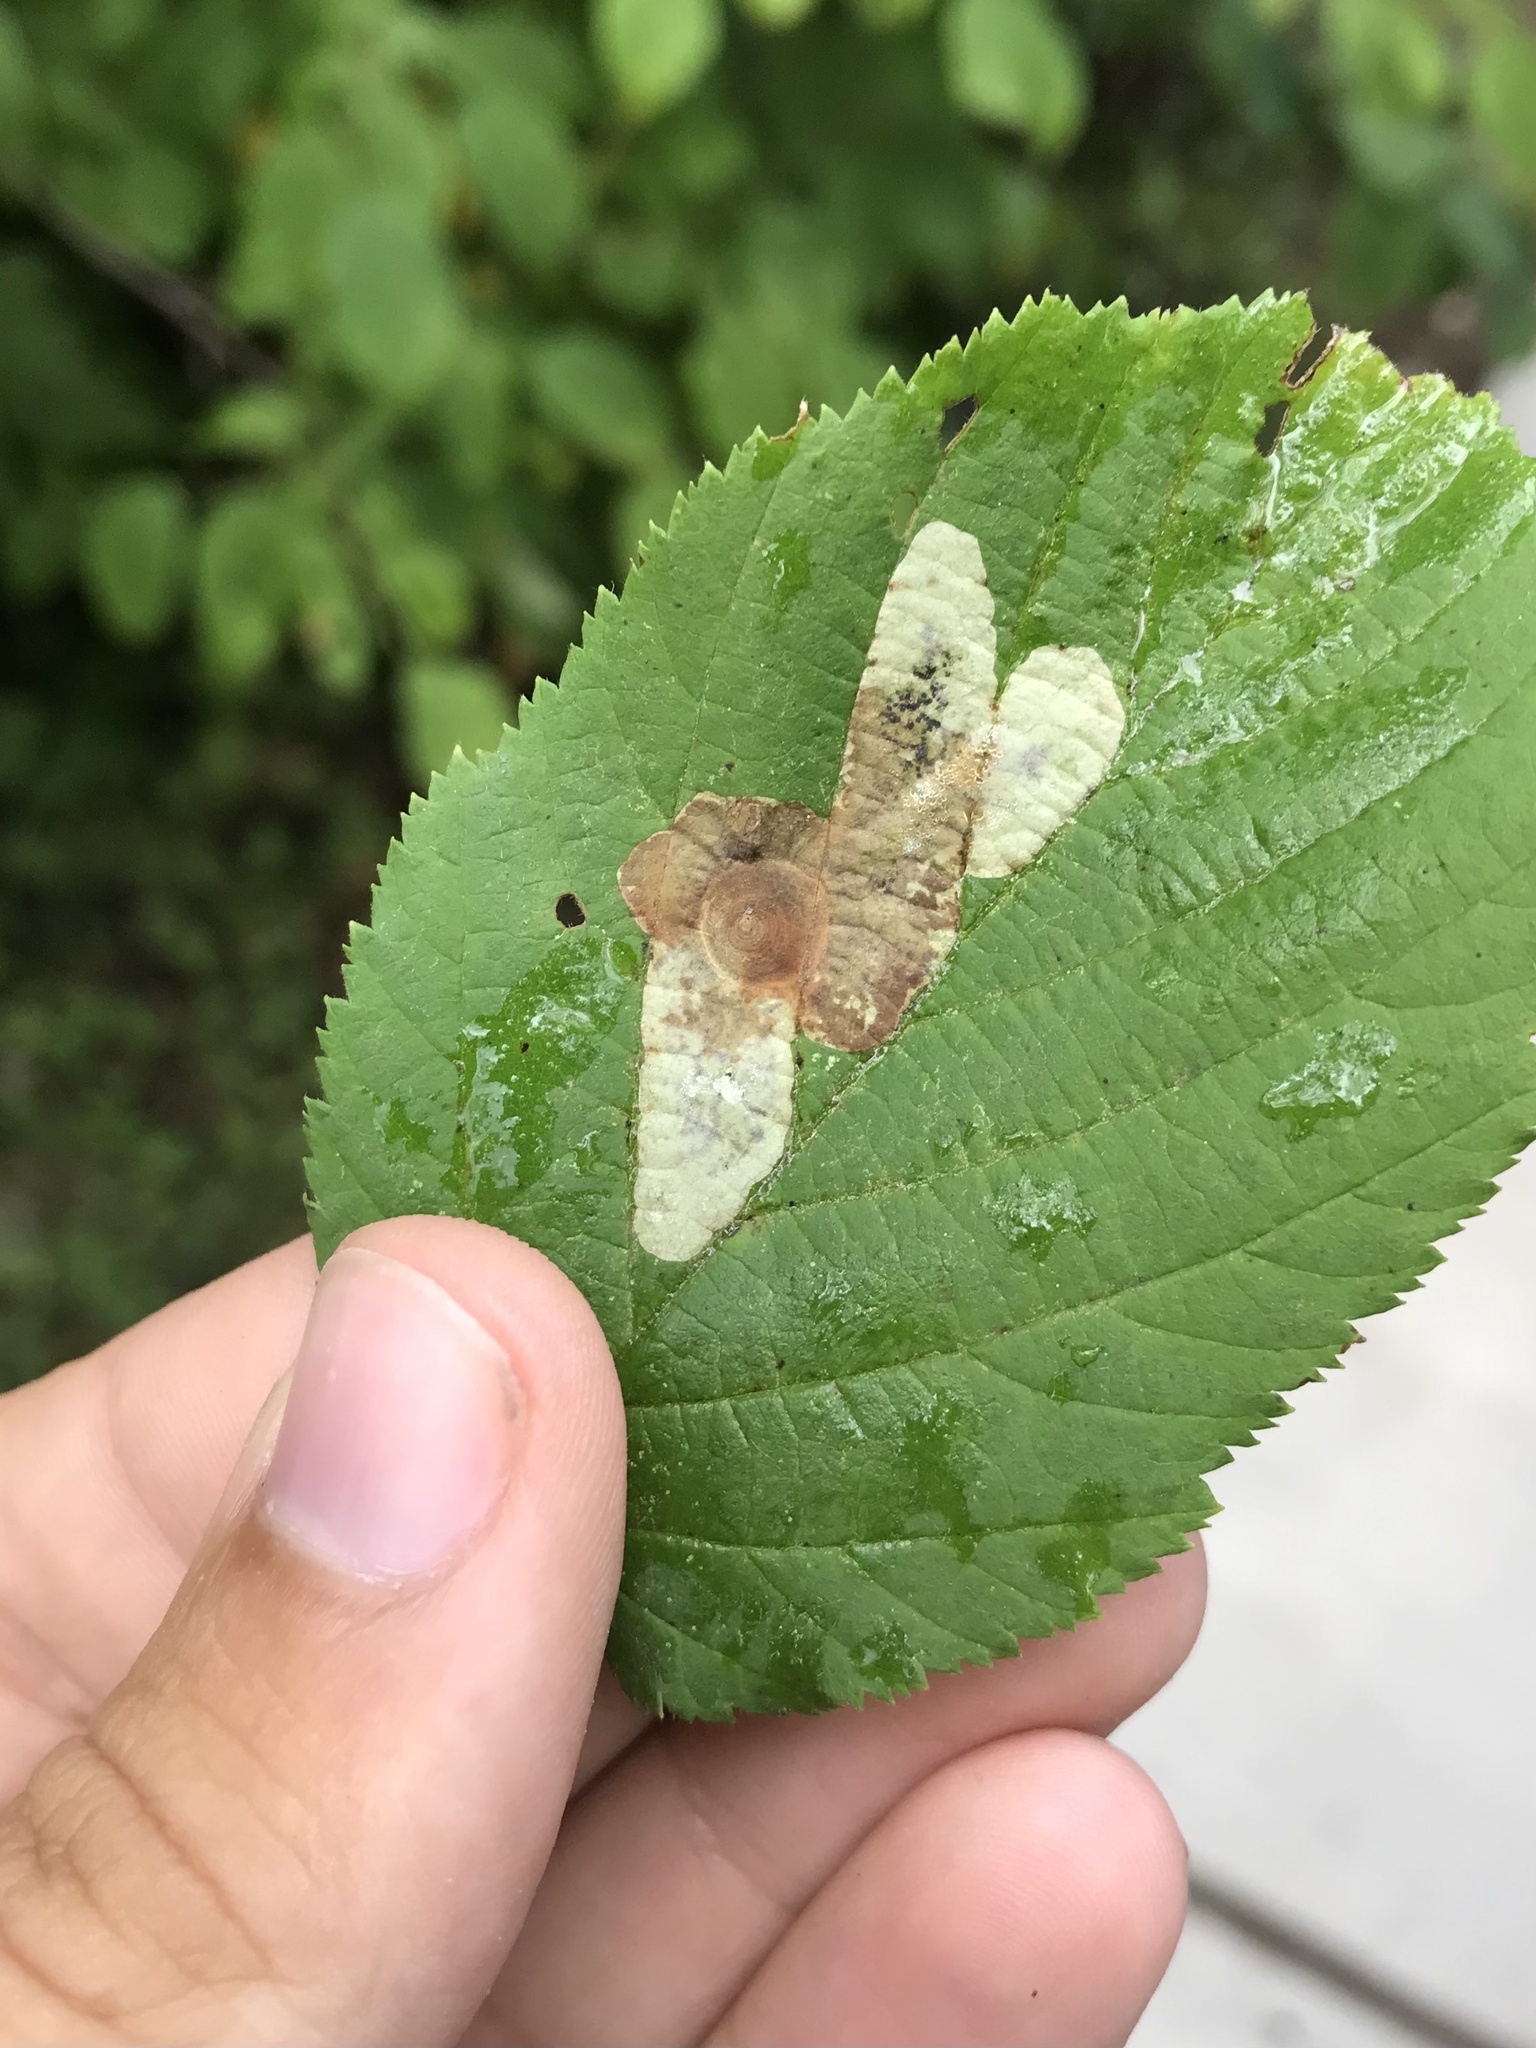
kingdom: Animalia
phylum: Arthropoda
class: Insecta
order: Lepidoptera
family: Gracillariidae
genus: Cameraria
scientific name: Cameraria corylisella
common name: Hazel blotchminer
